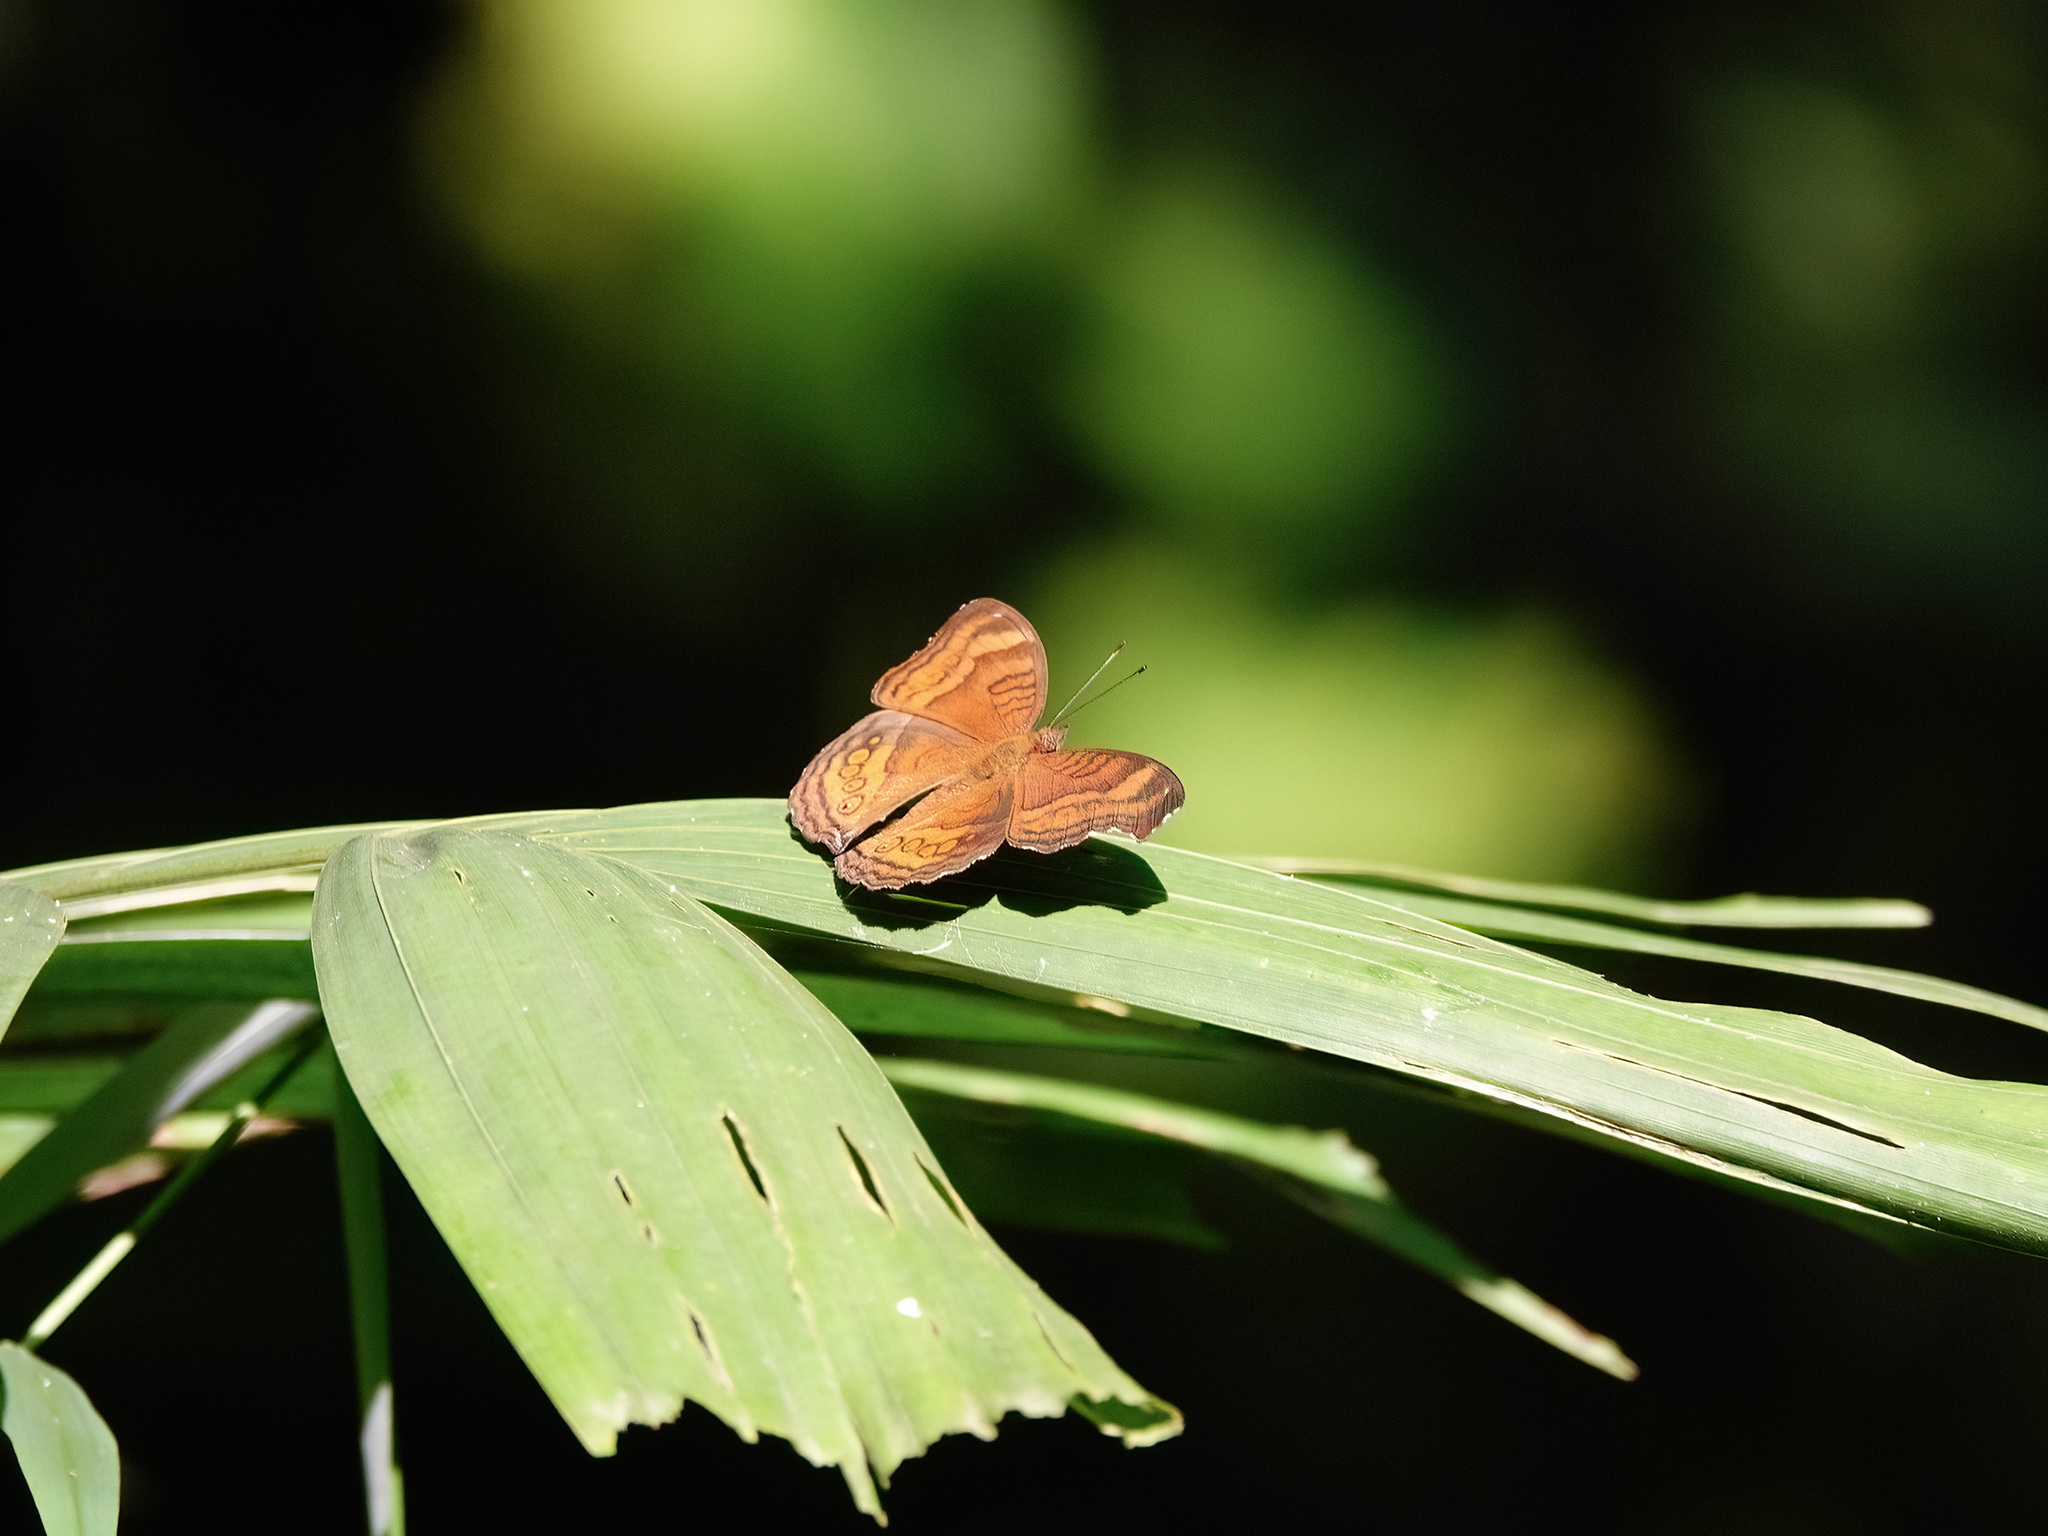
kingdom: Animalia
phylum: Arthropoda
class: Insecta
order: Lepidoptera
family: Nymphalidae
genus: Junonia
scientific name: Junonia hedonia
